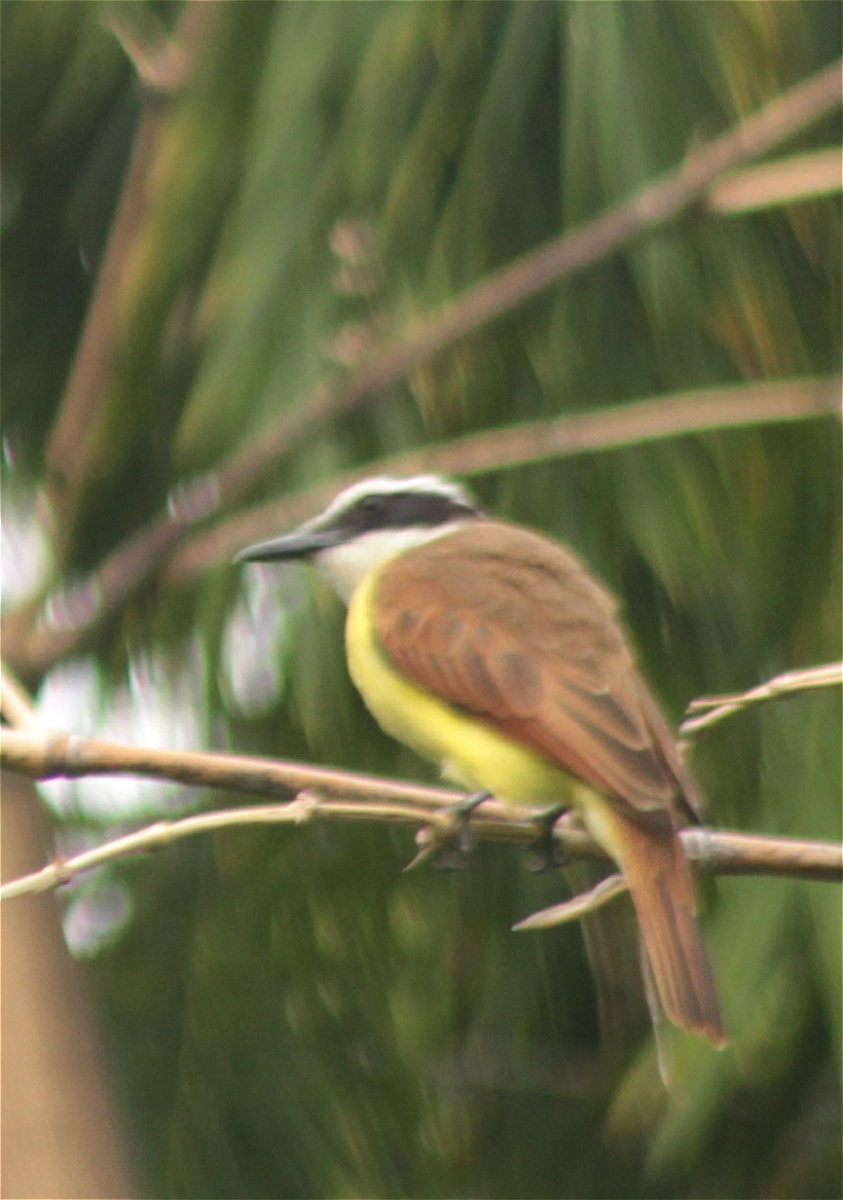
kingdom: Animalia
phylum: Chordata
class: Aves
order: Passeriformes
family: Tyrannidae
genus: Pitangus
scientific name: Pitangus sulphuratus
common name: Great kiskadee
